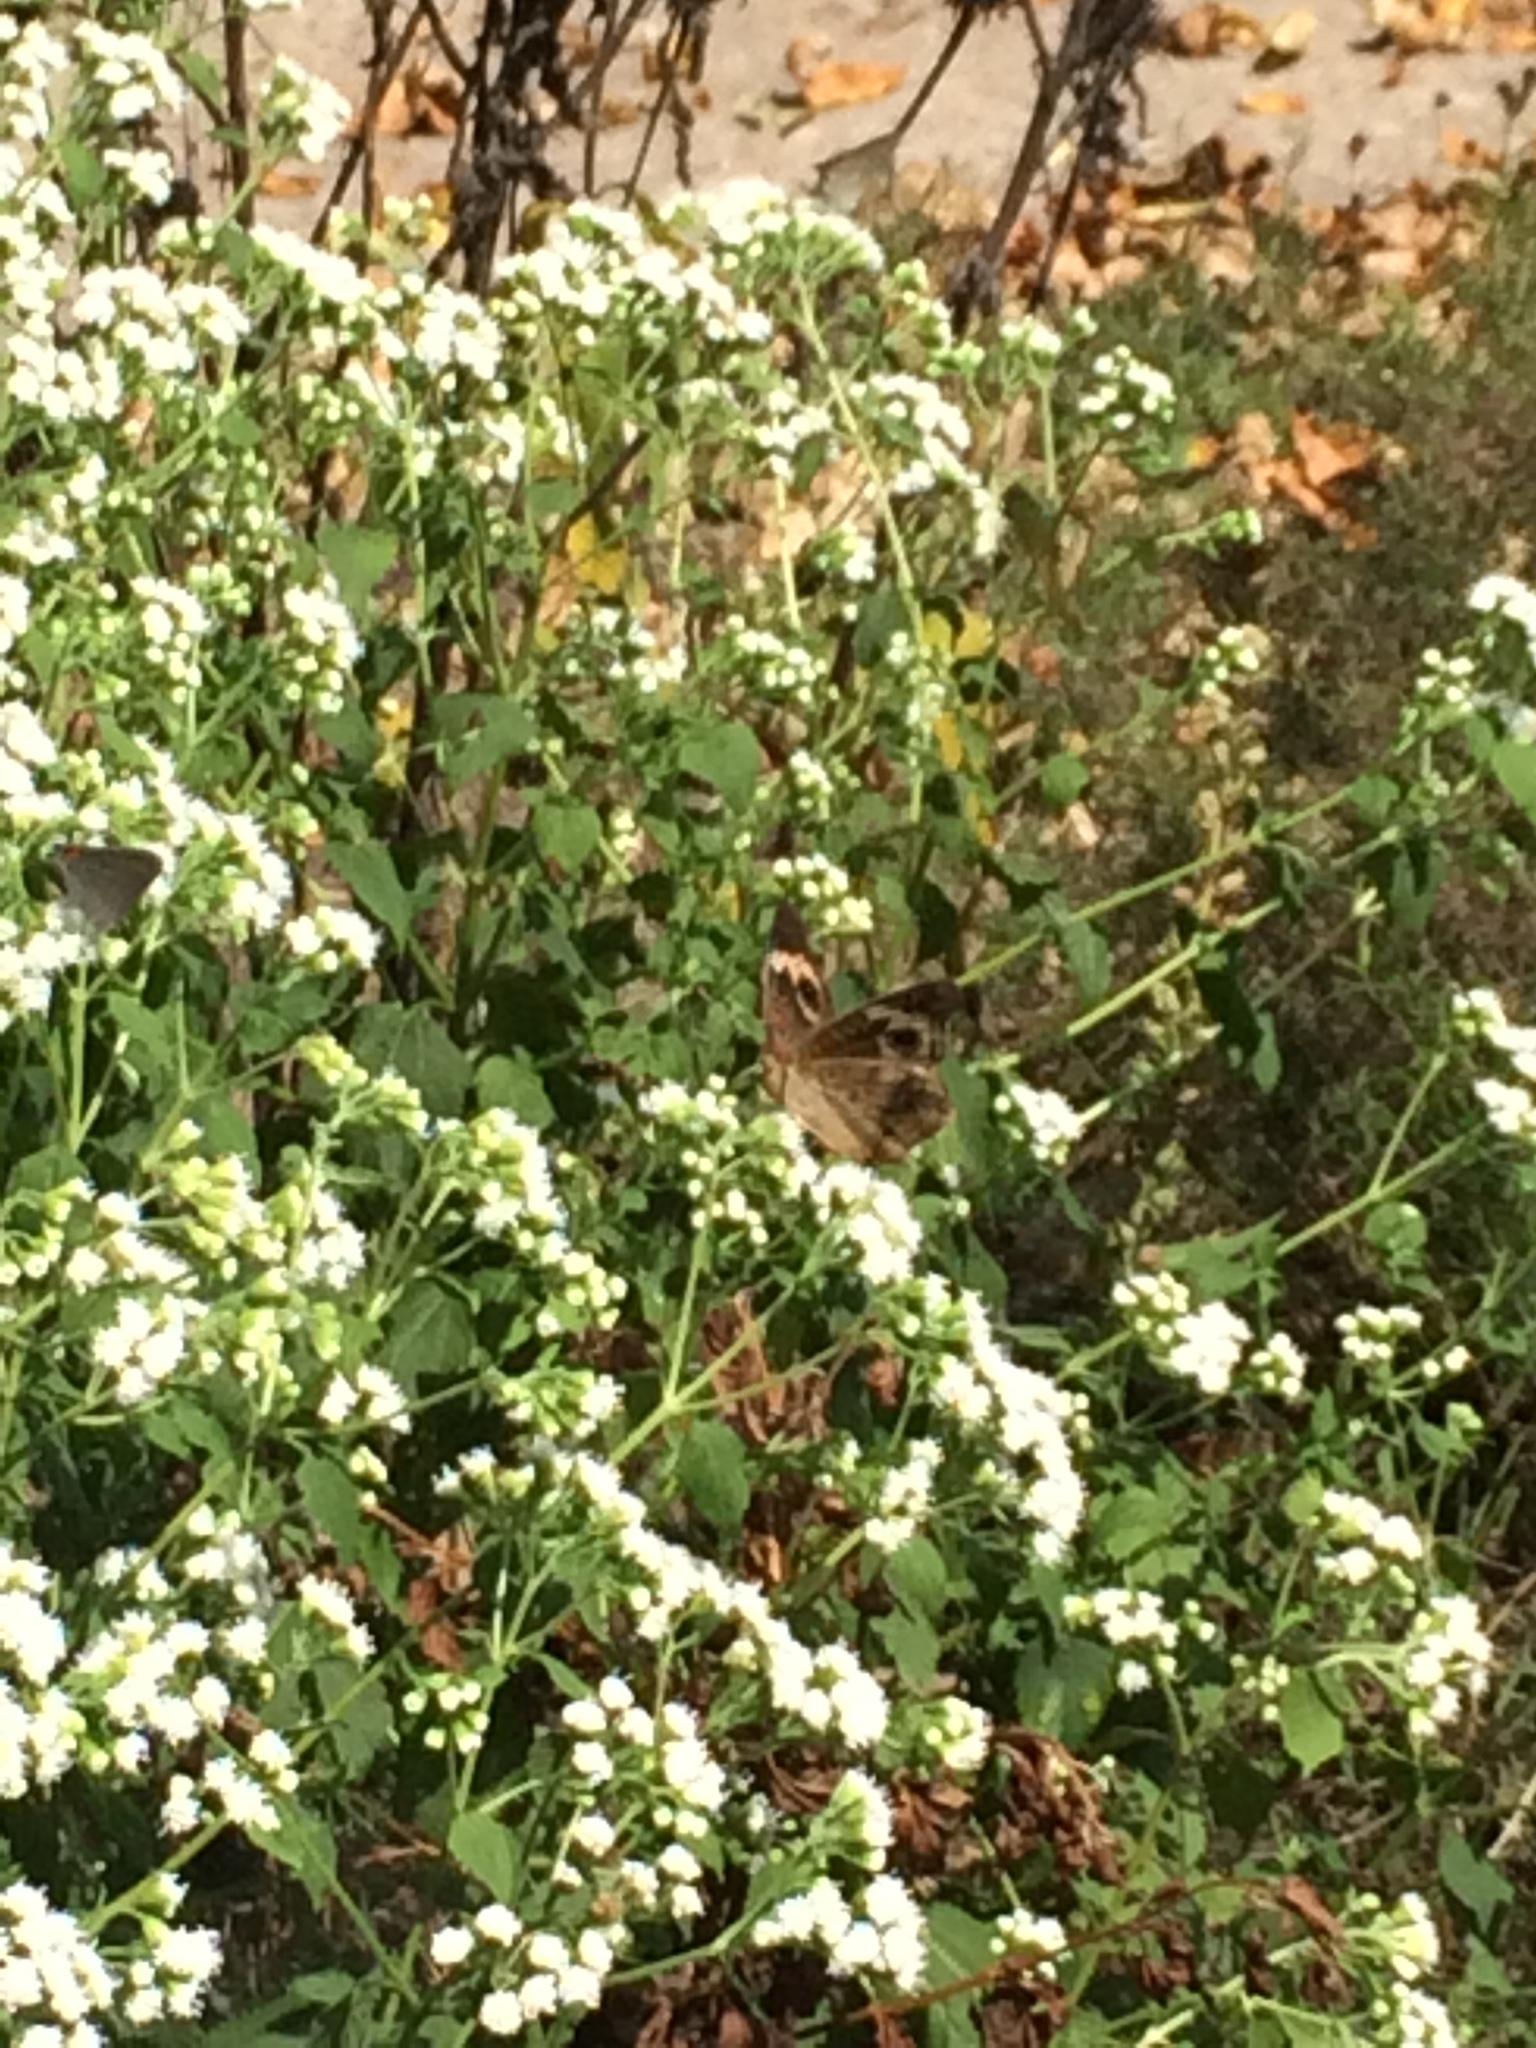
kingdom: Animalia
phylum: Arthropoda
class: Insecta
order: Lepidoptera
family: Nymphalidae
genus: Junonia
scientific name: Junonia coenia
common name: Common buckeye
